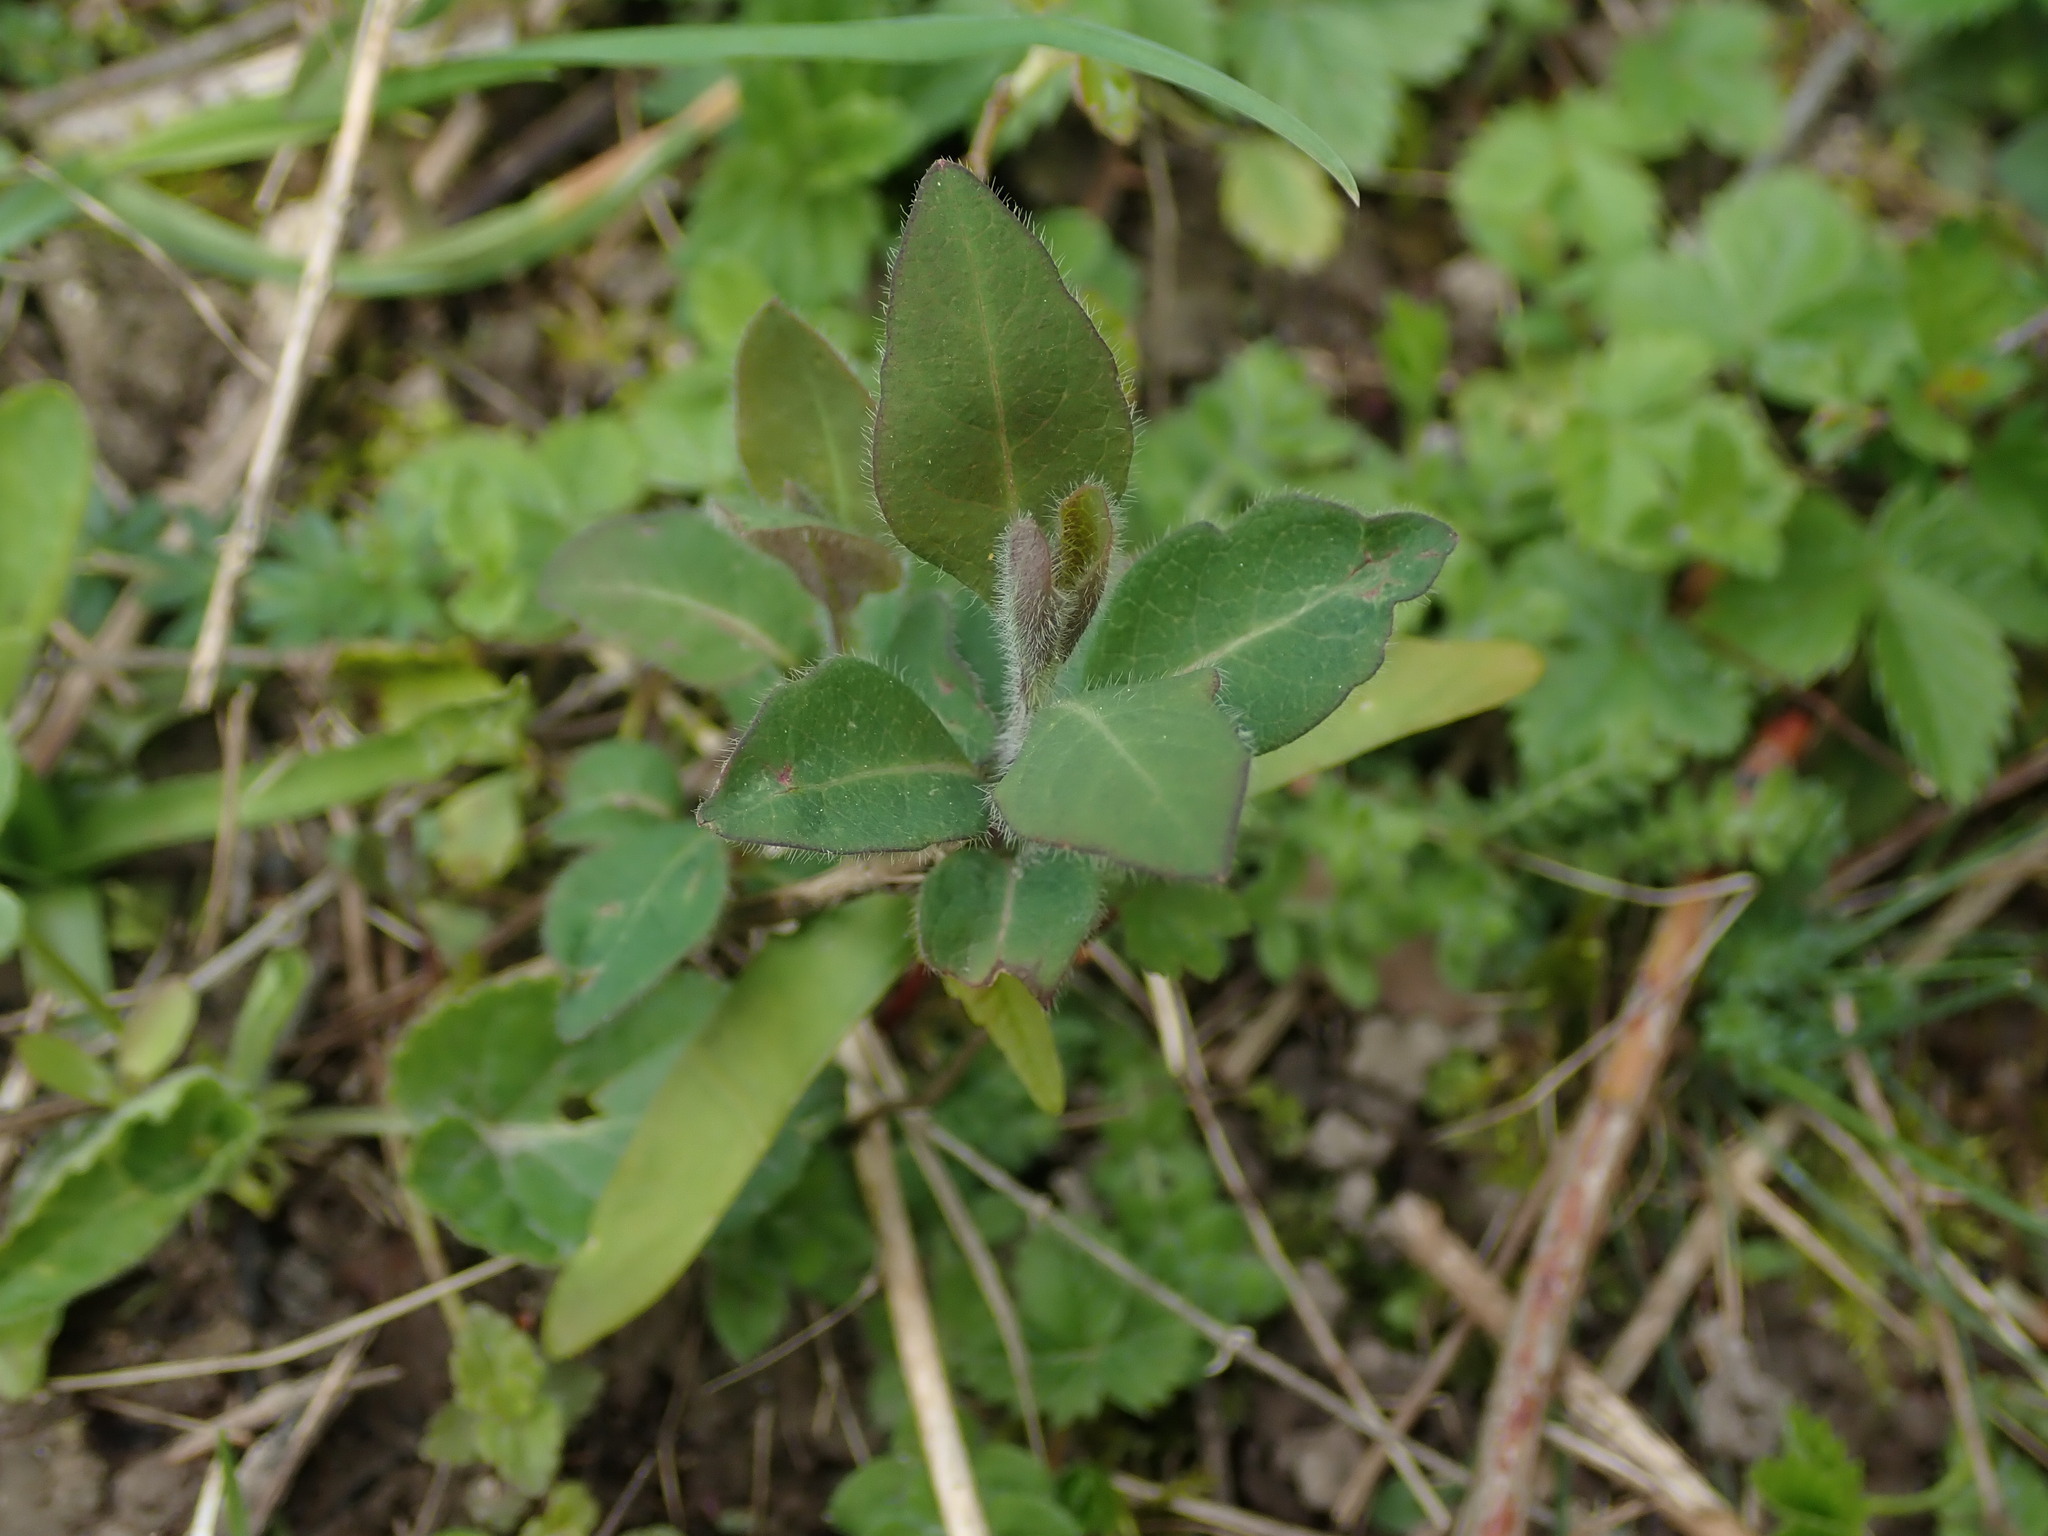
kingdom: Plantae
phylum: Tracheophyta
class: Magnoliopsida
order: Dipsacales
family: Caprifoliaceae
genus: Lonicera
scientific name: Lonicera periclymenum
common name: European honeysuckle
